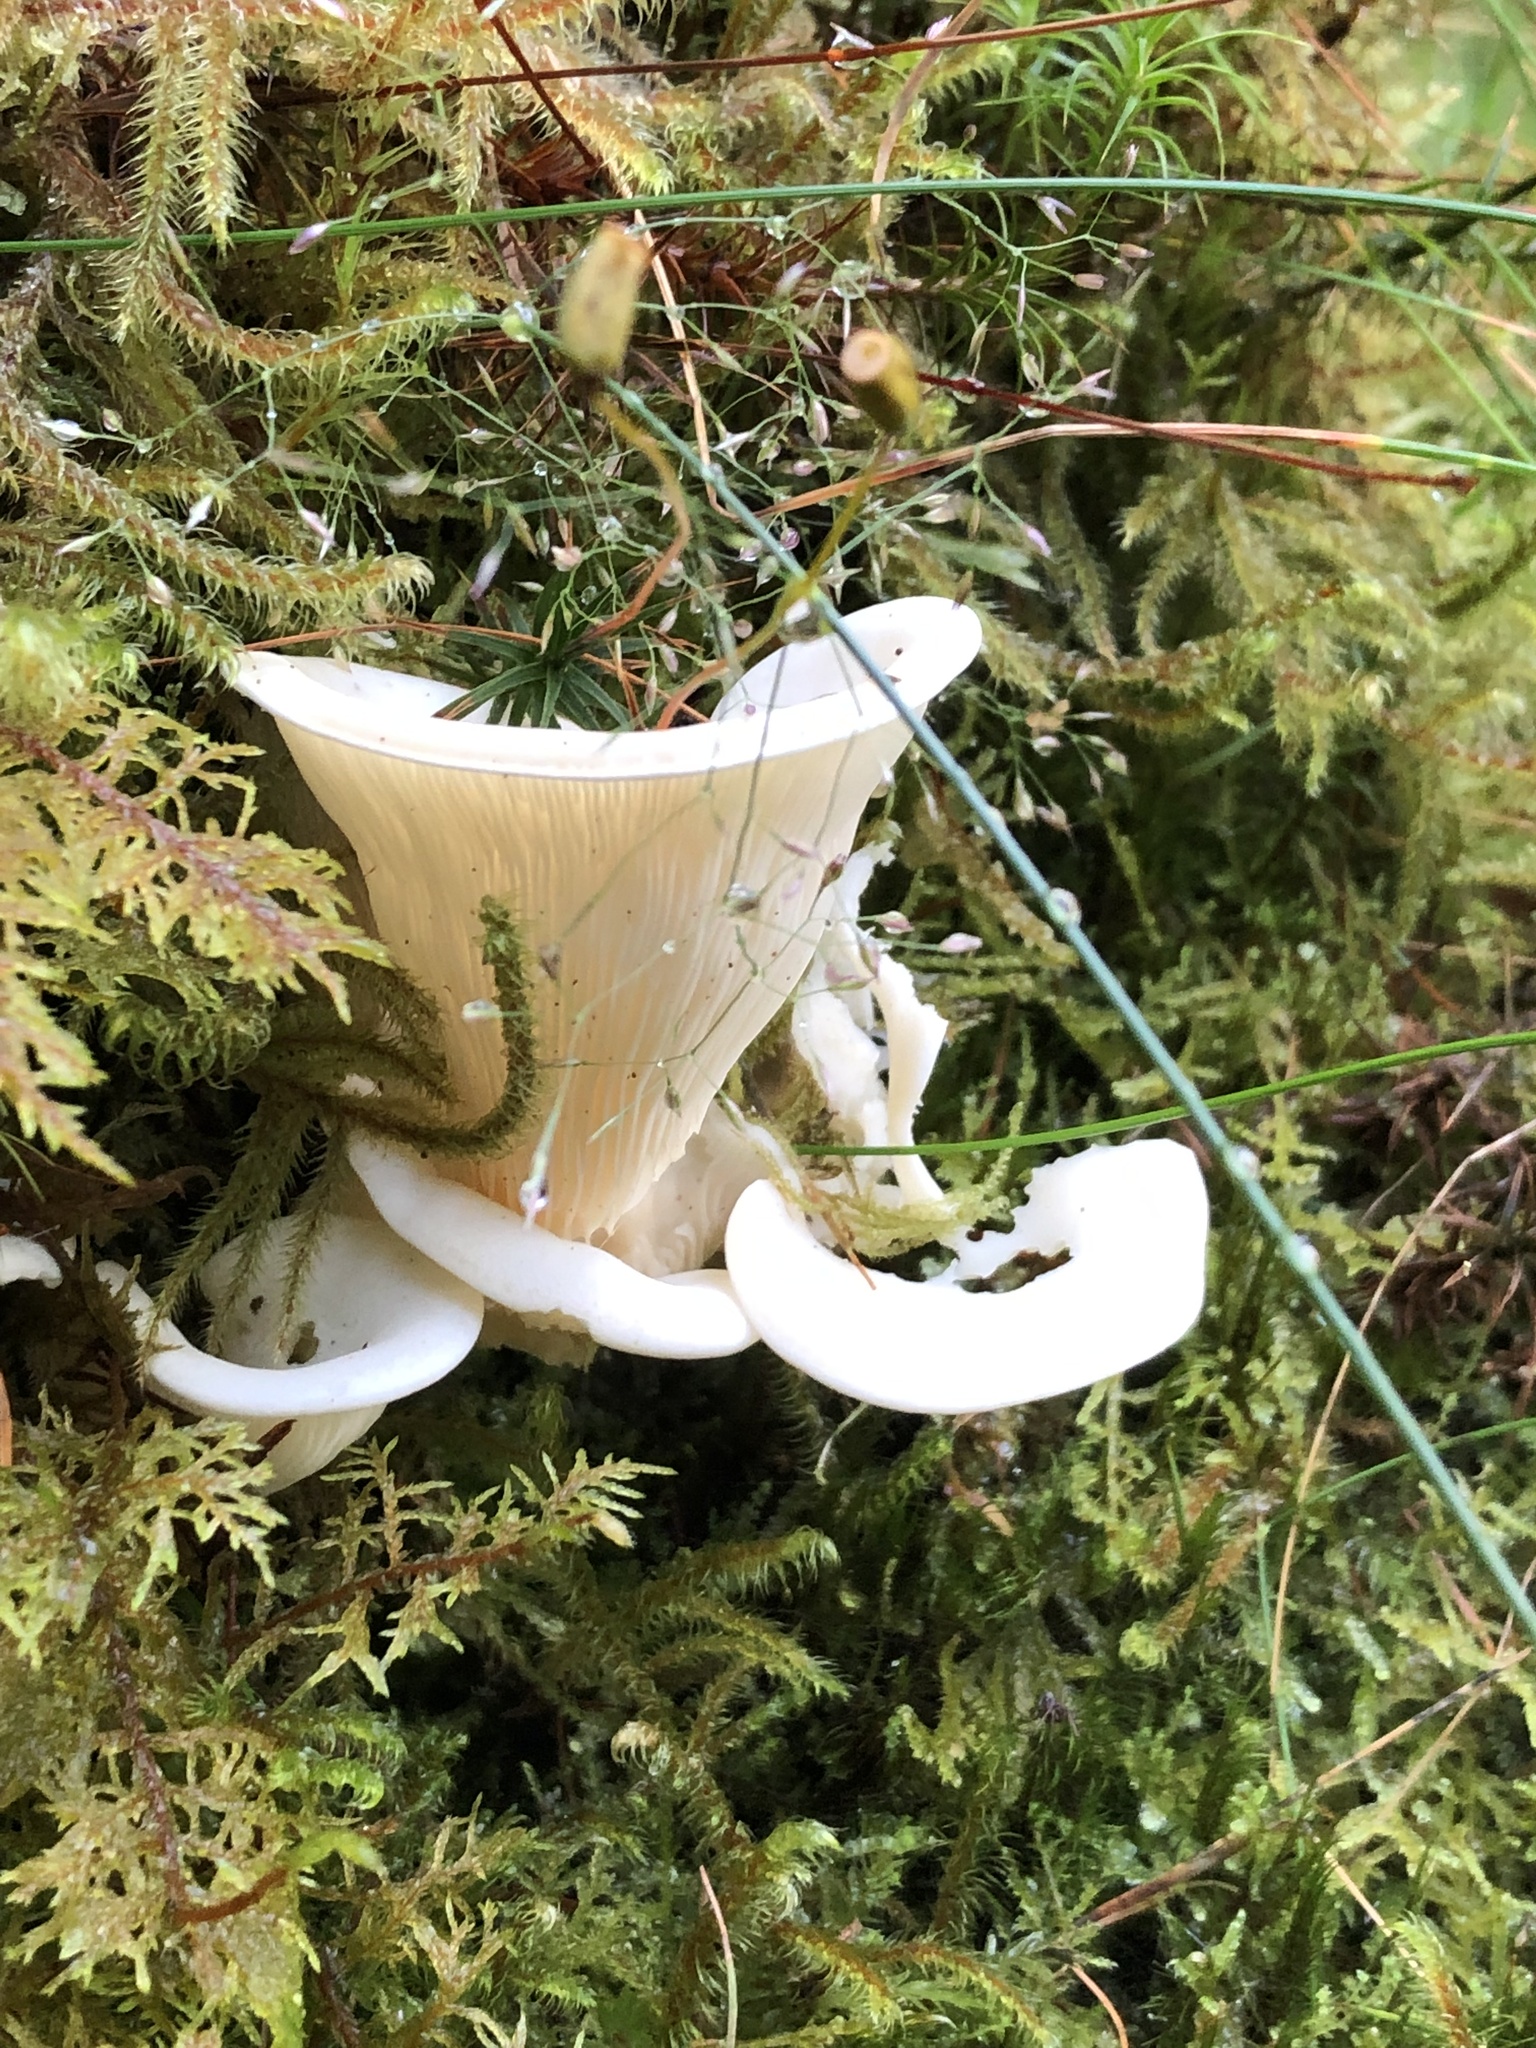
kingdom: Fungi
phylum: Basidiomycota
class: Agaricomycetes
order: Agaricales
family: Marasmiaceae
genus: Pleurocybella
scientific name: Pleurocybella porrigens
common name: Angel's wings
